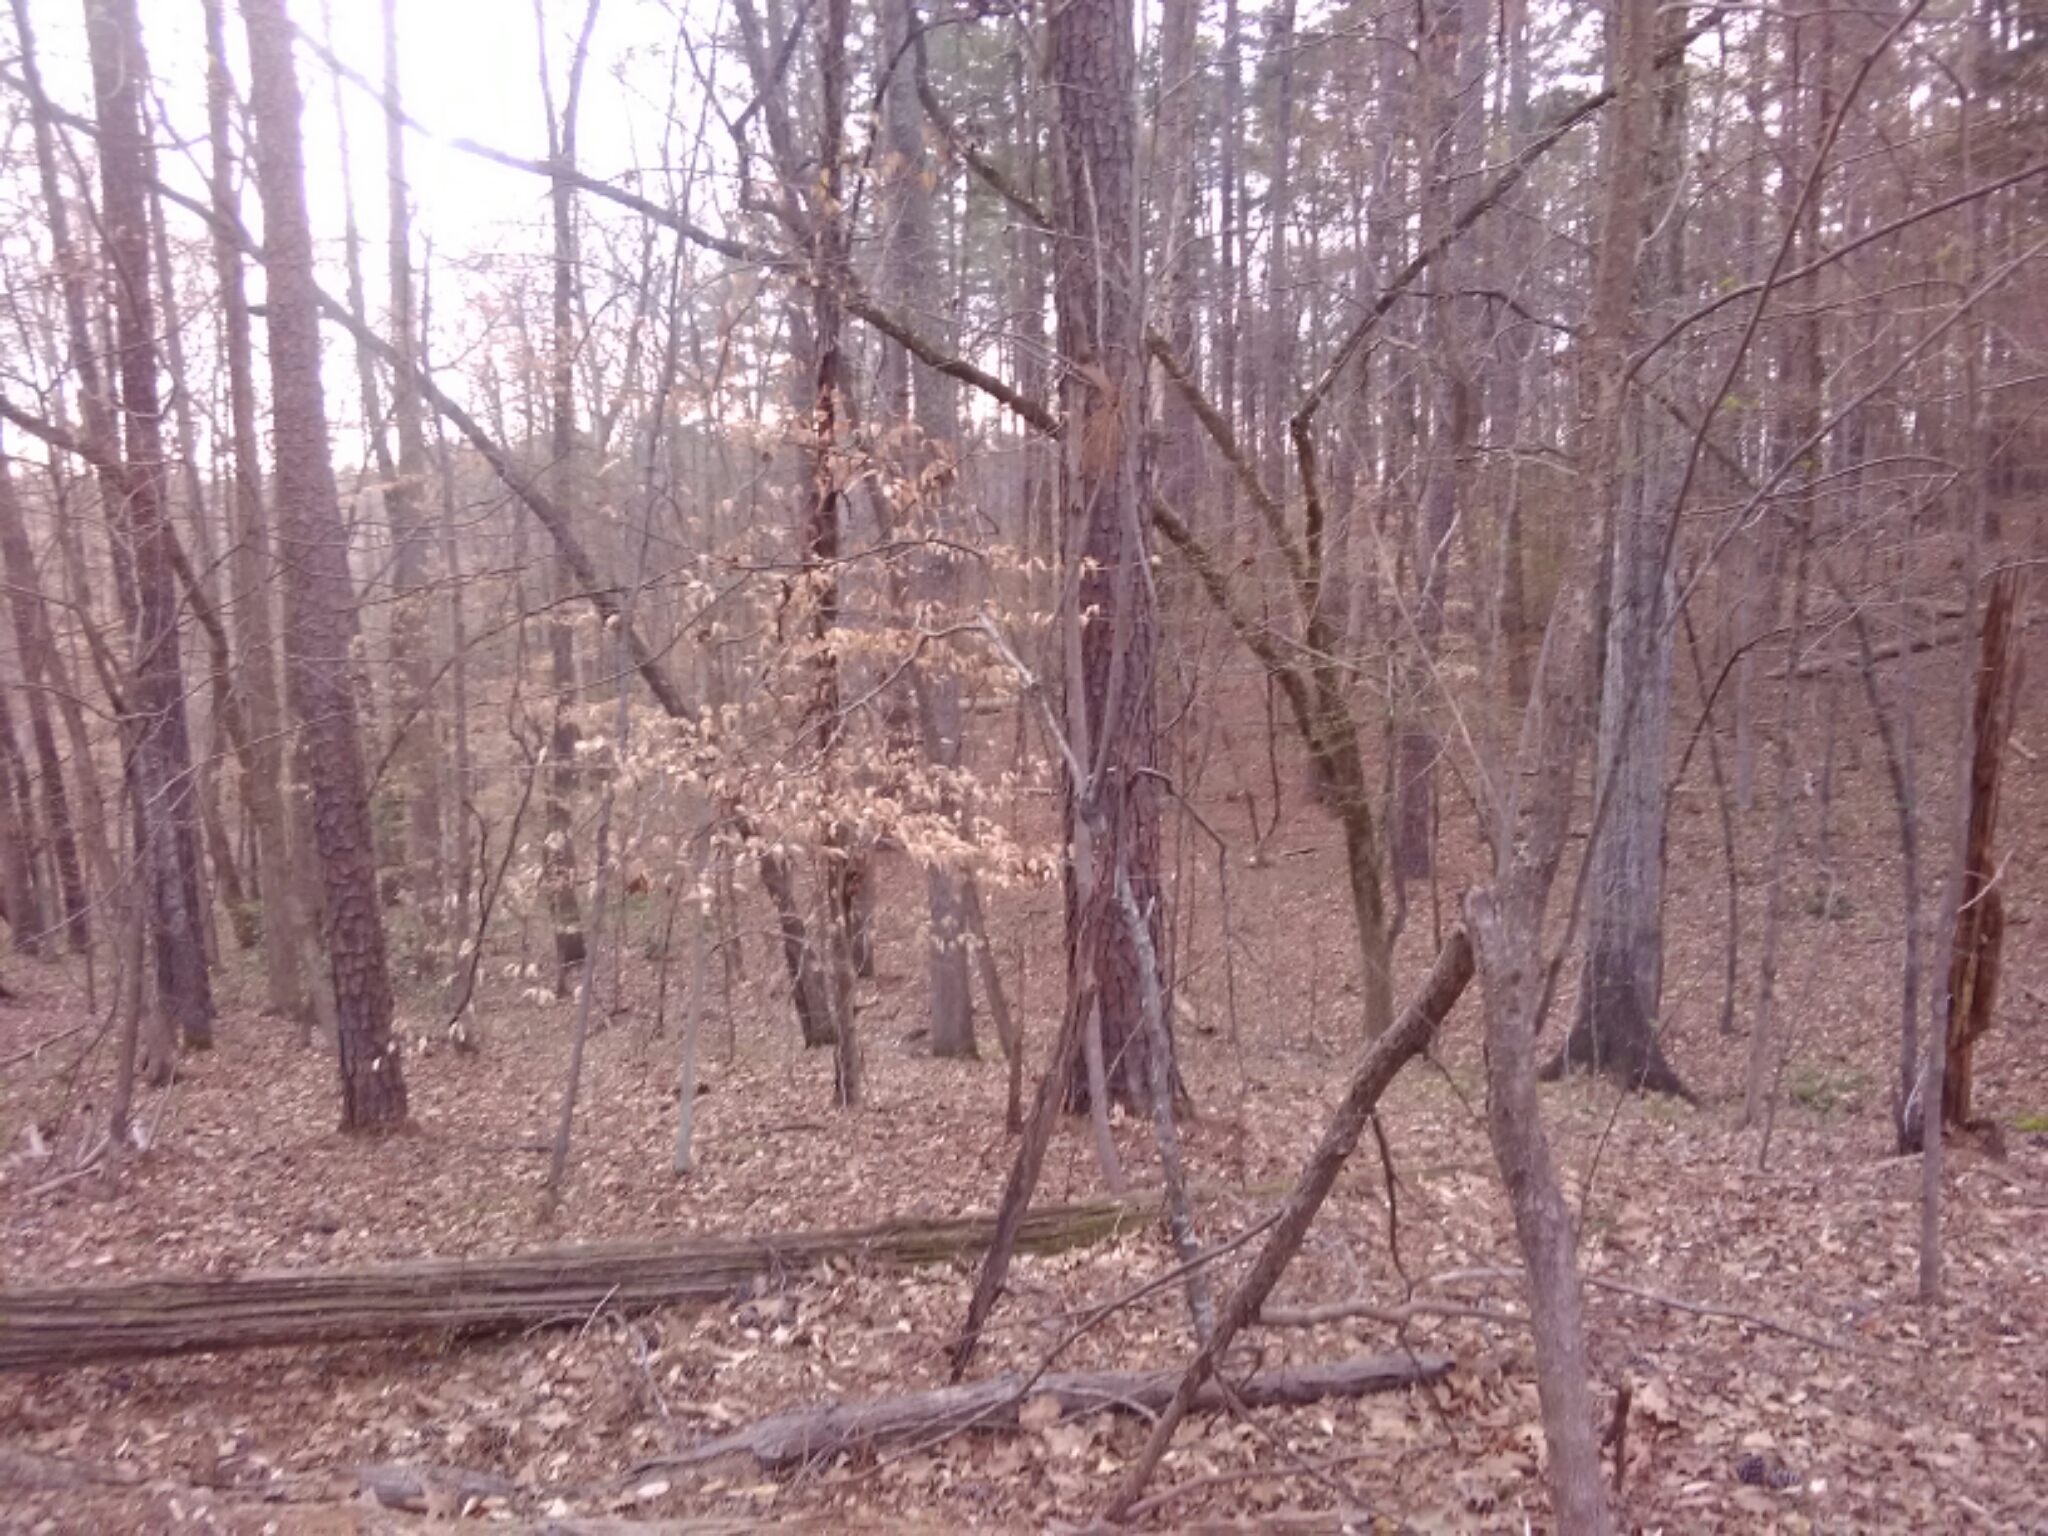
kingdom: Plantae
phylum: Tracheophyta
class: Magnoliopsida
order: Fagales
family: Fagaceae
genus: Fagus
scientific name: Fagus grandifolia
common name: American beech
